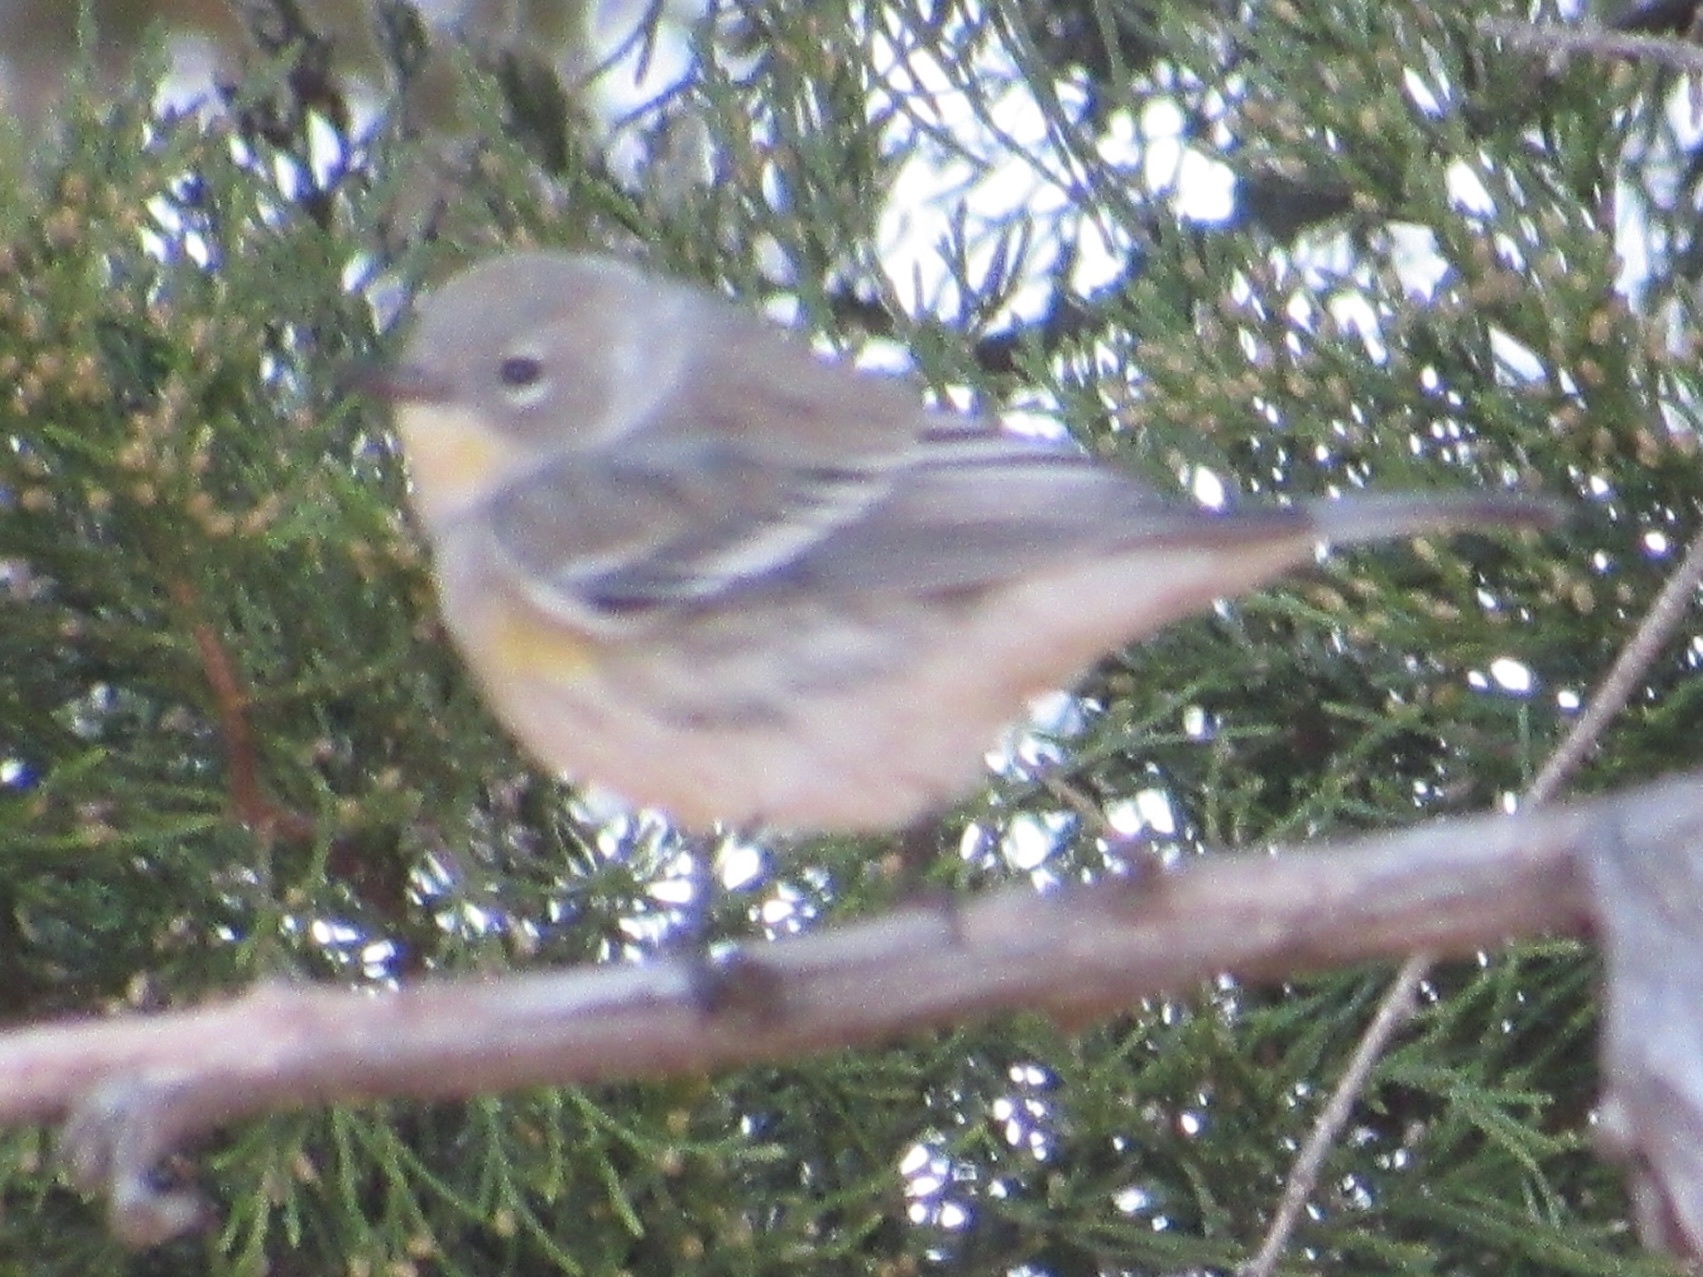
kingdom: Animalia
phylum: Chordata
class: Aves
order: Passeriformes
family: Parulidae
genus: Setophaga
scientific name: Setophaga coronata
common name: Myrtle warbler
